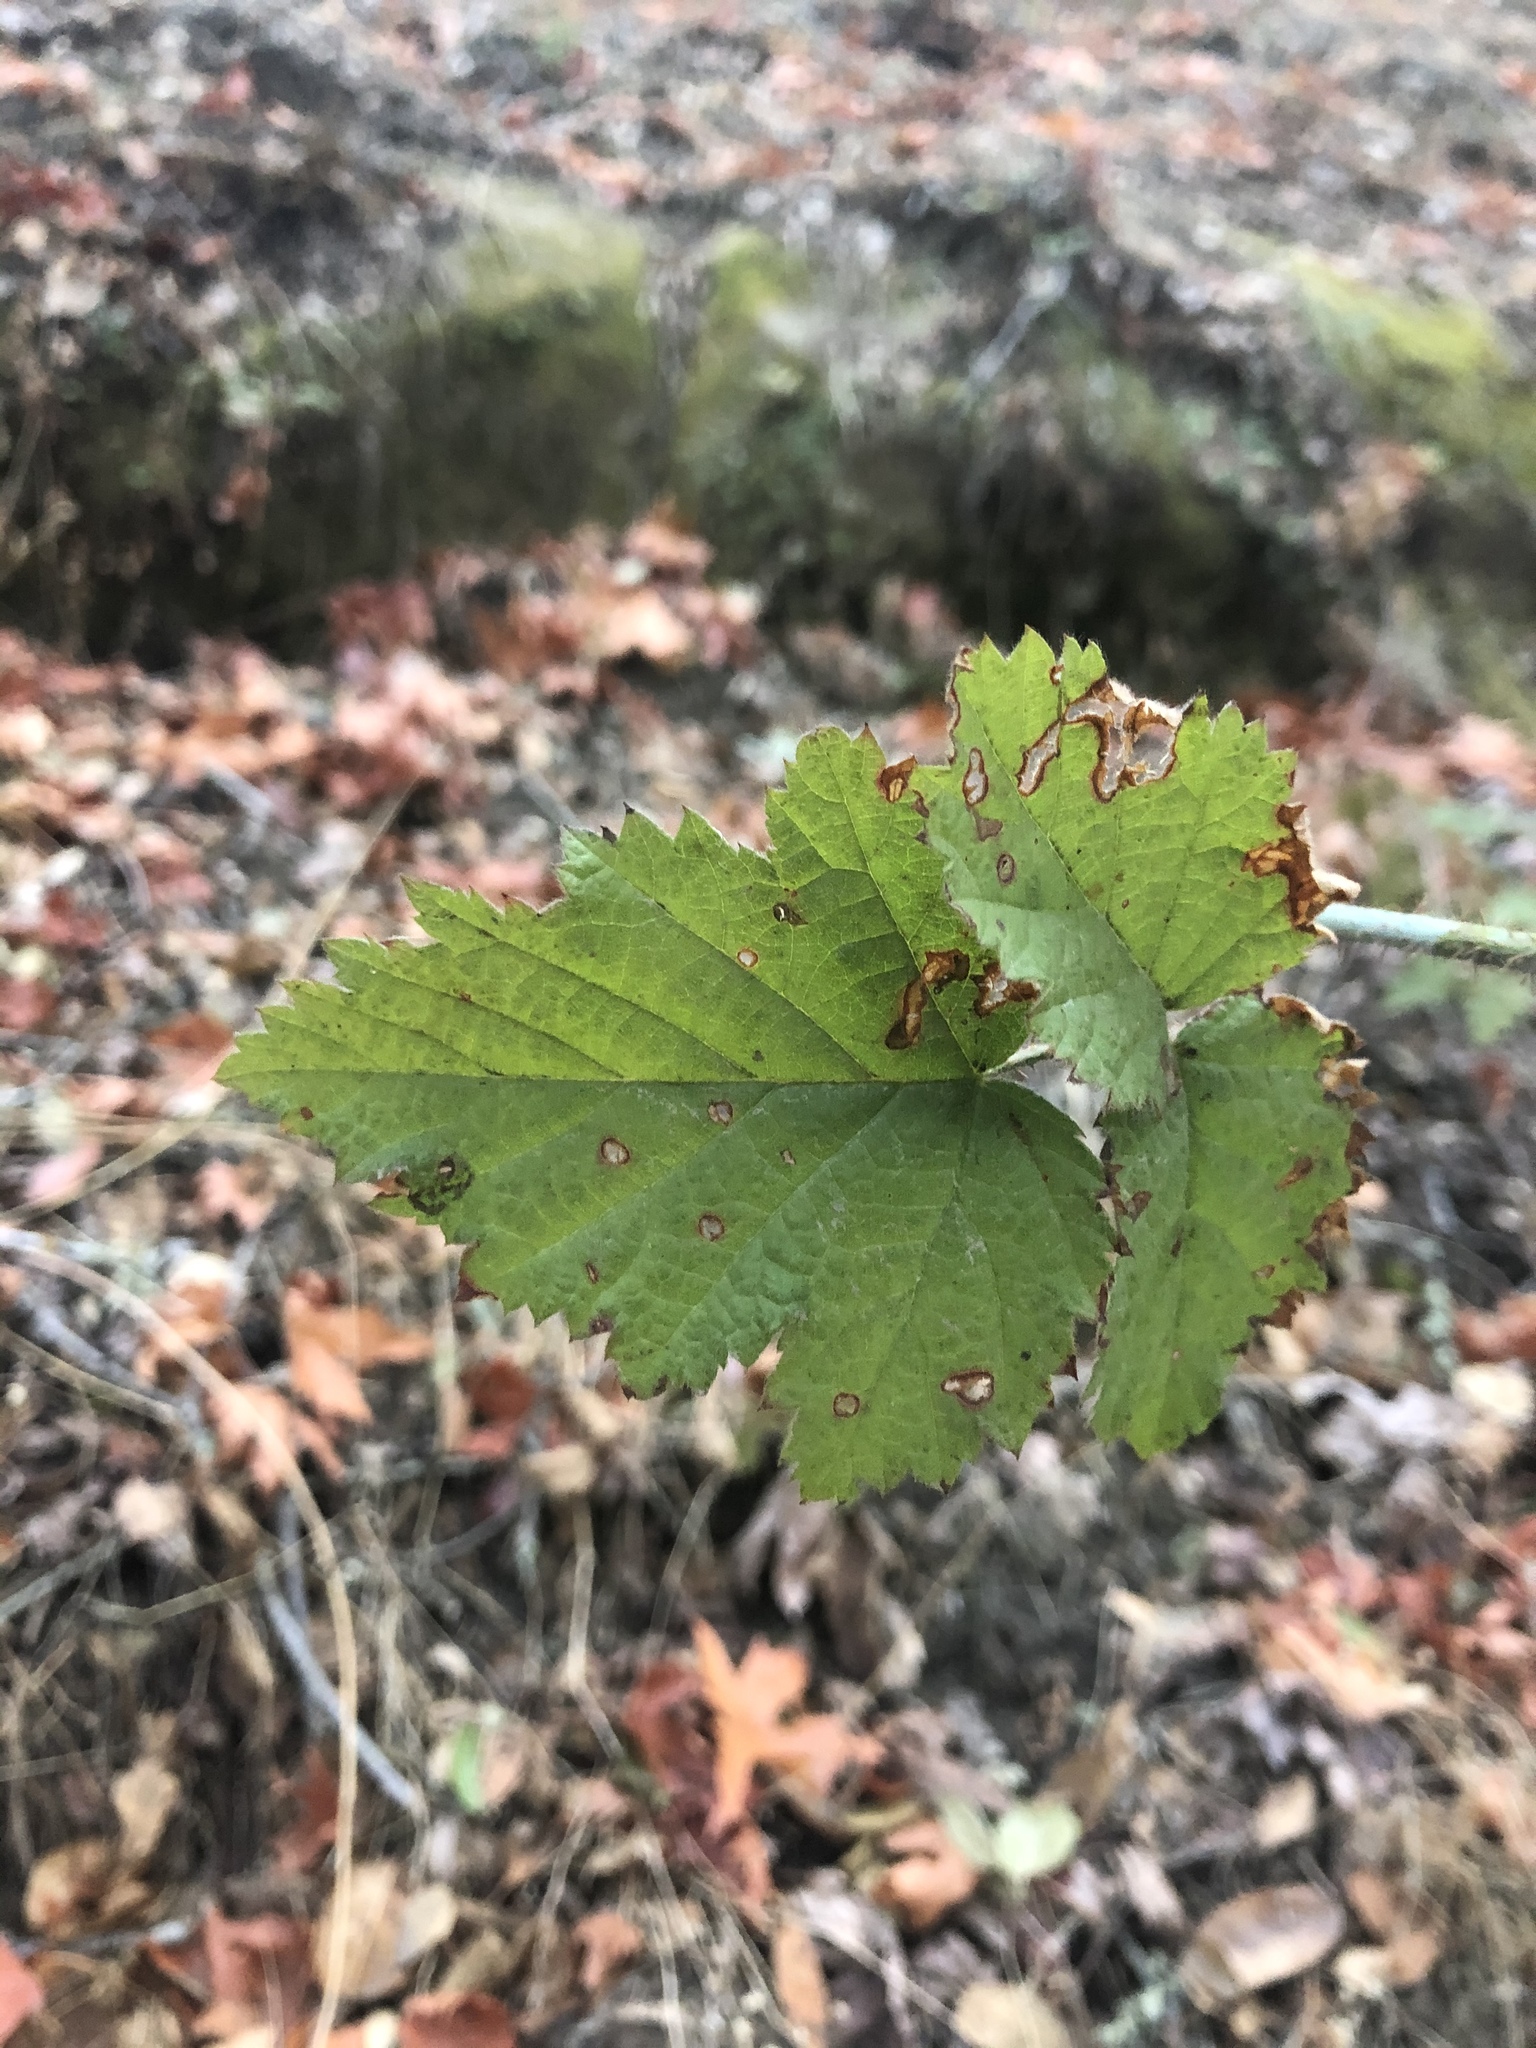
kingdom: Plantae
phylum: Tracheophyta
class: Magnoliopsida
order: Rosales
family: Rosaceae
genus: Rubus
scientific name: Rubus ursinus
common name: Pacific blackberry
